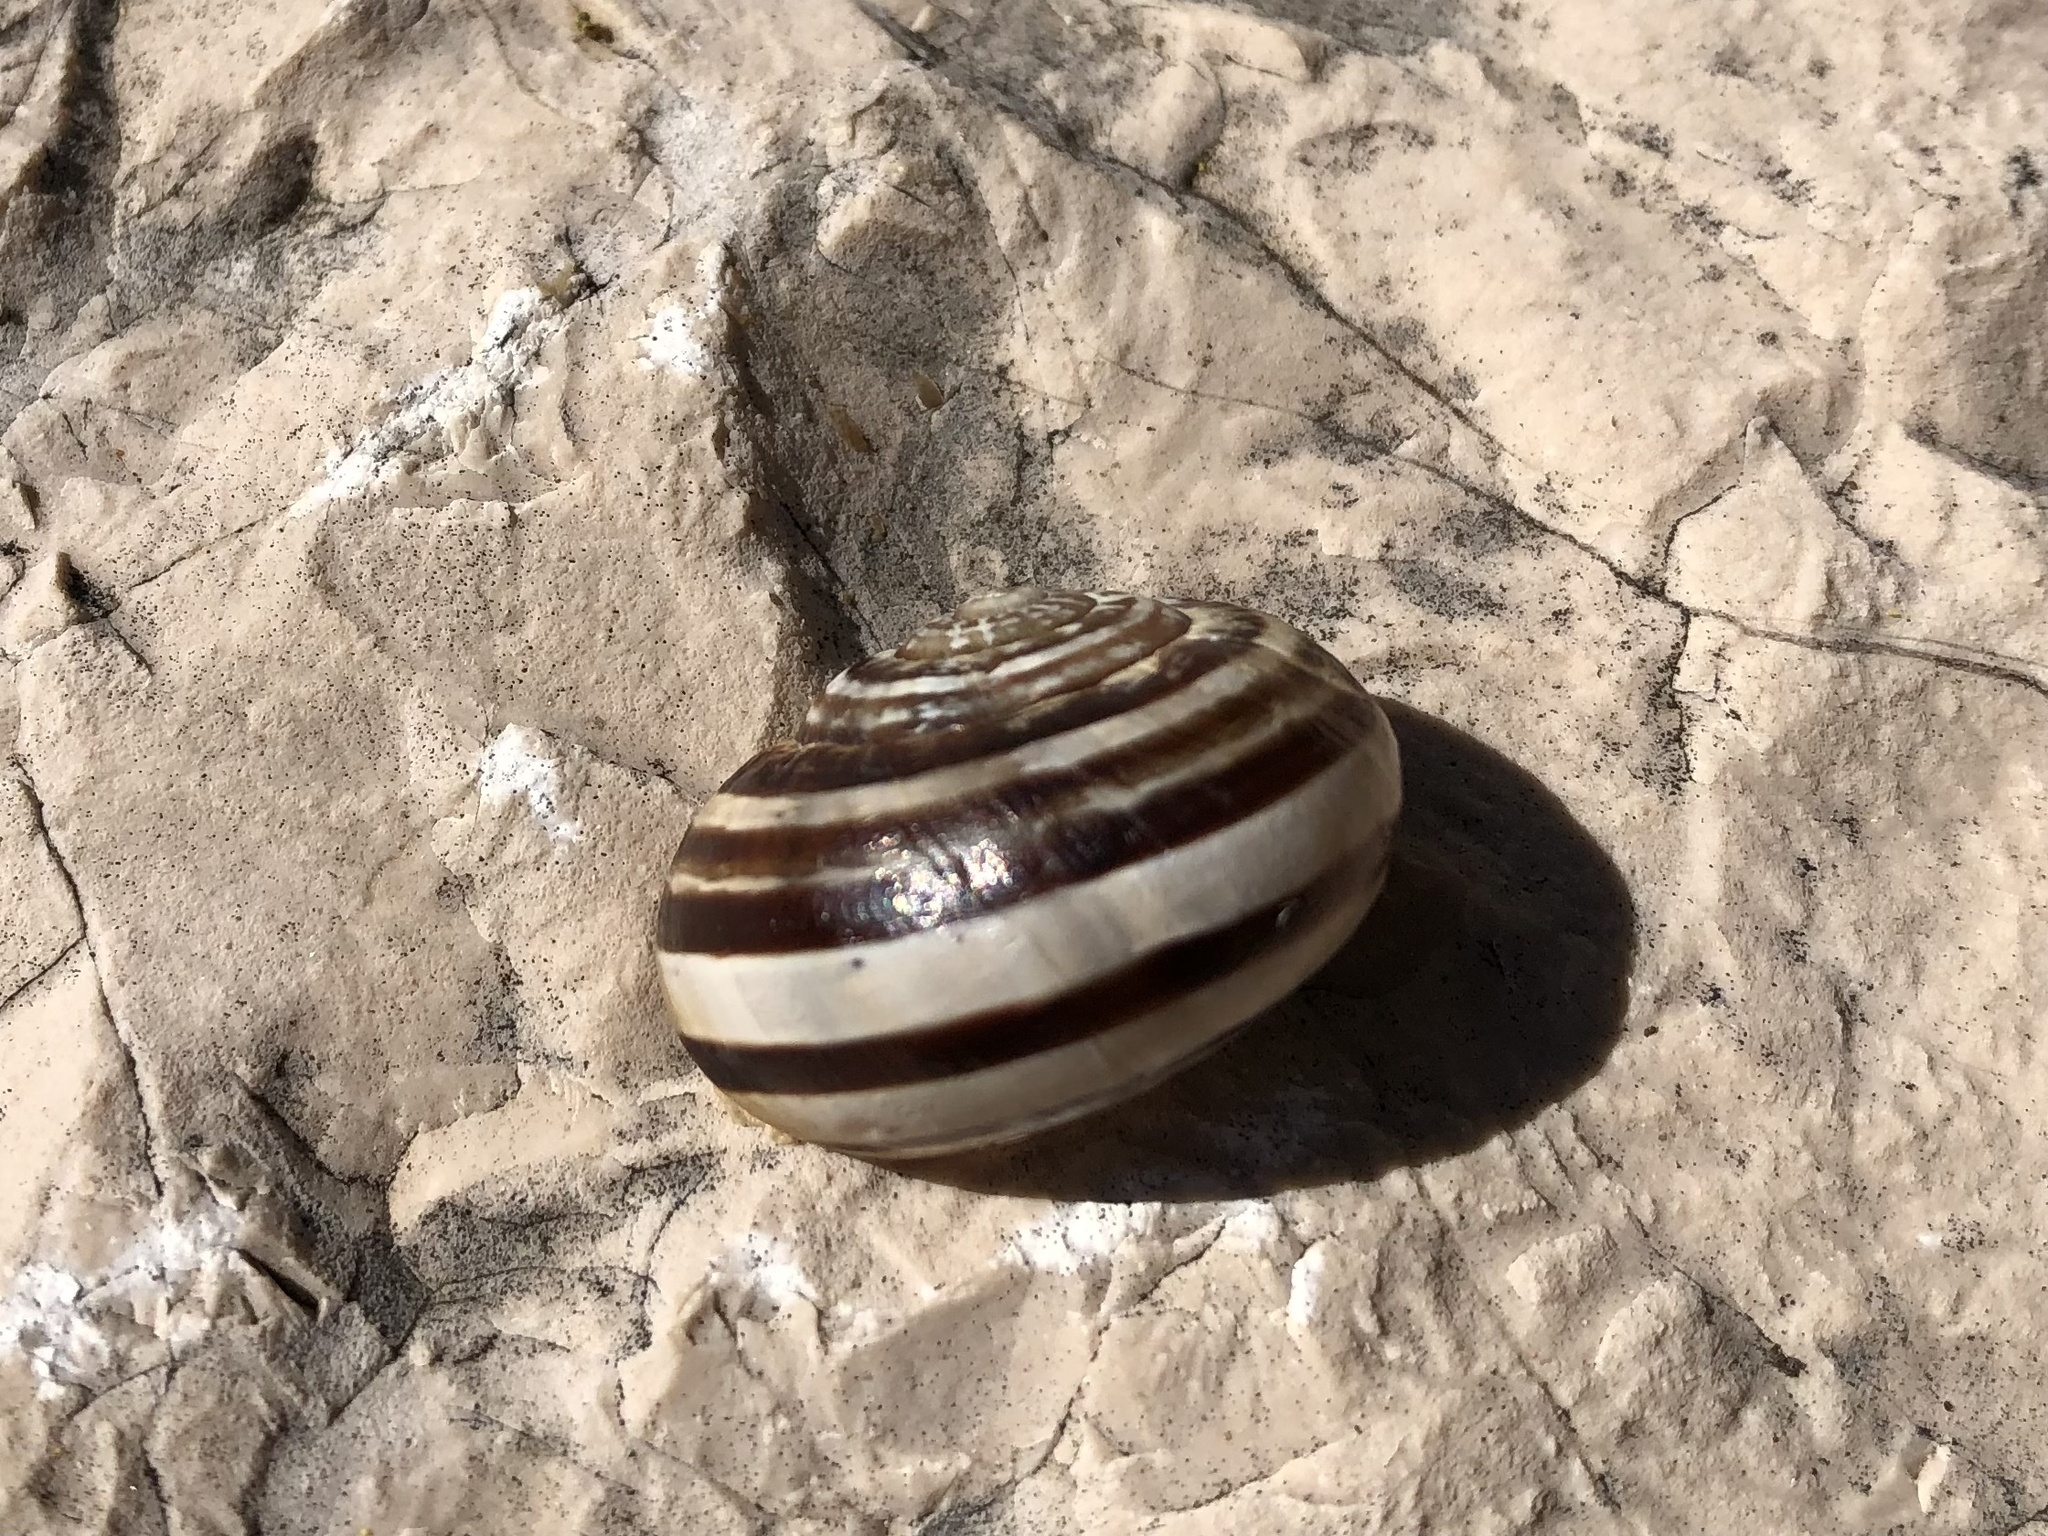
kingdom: Animalia
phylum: Mollusca
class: Gastropoda
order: Stylommatophora
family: Helicidae
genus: Eobania
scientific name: Eobania vermiculata
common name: Chocolateband snail
